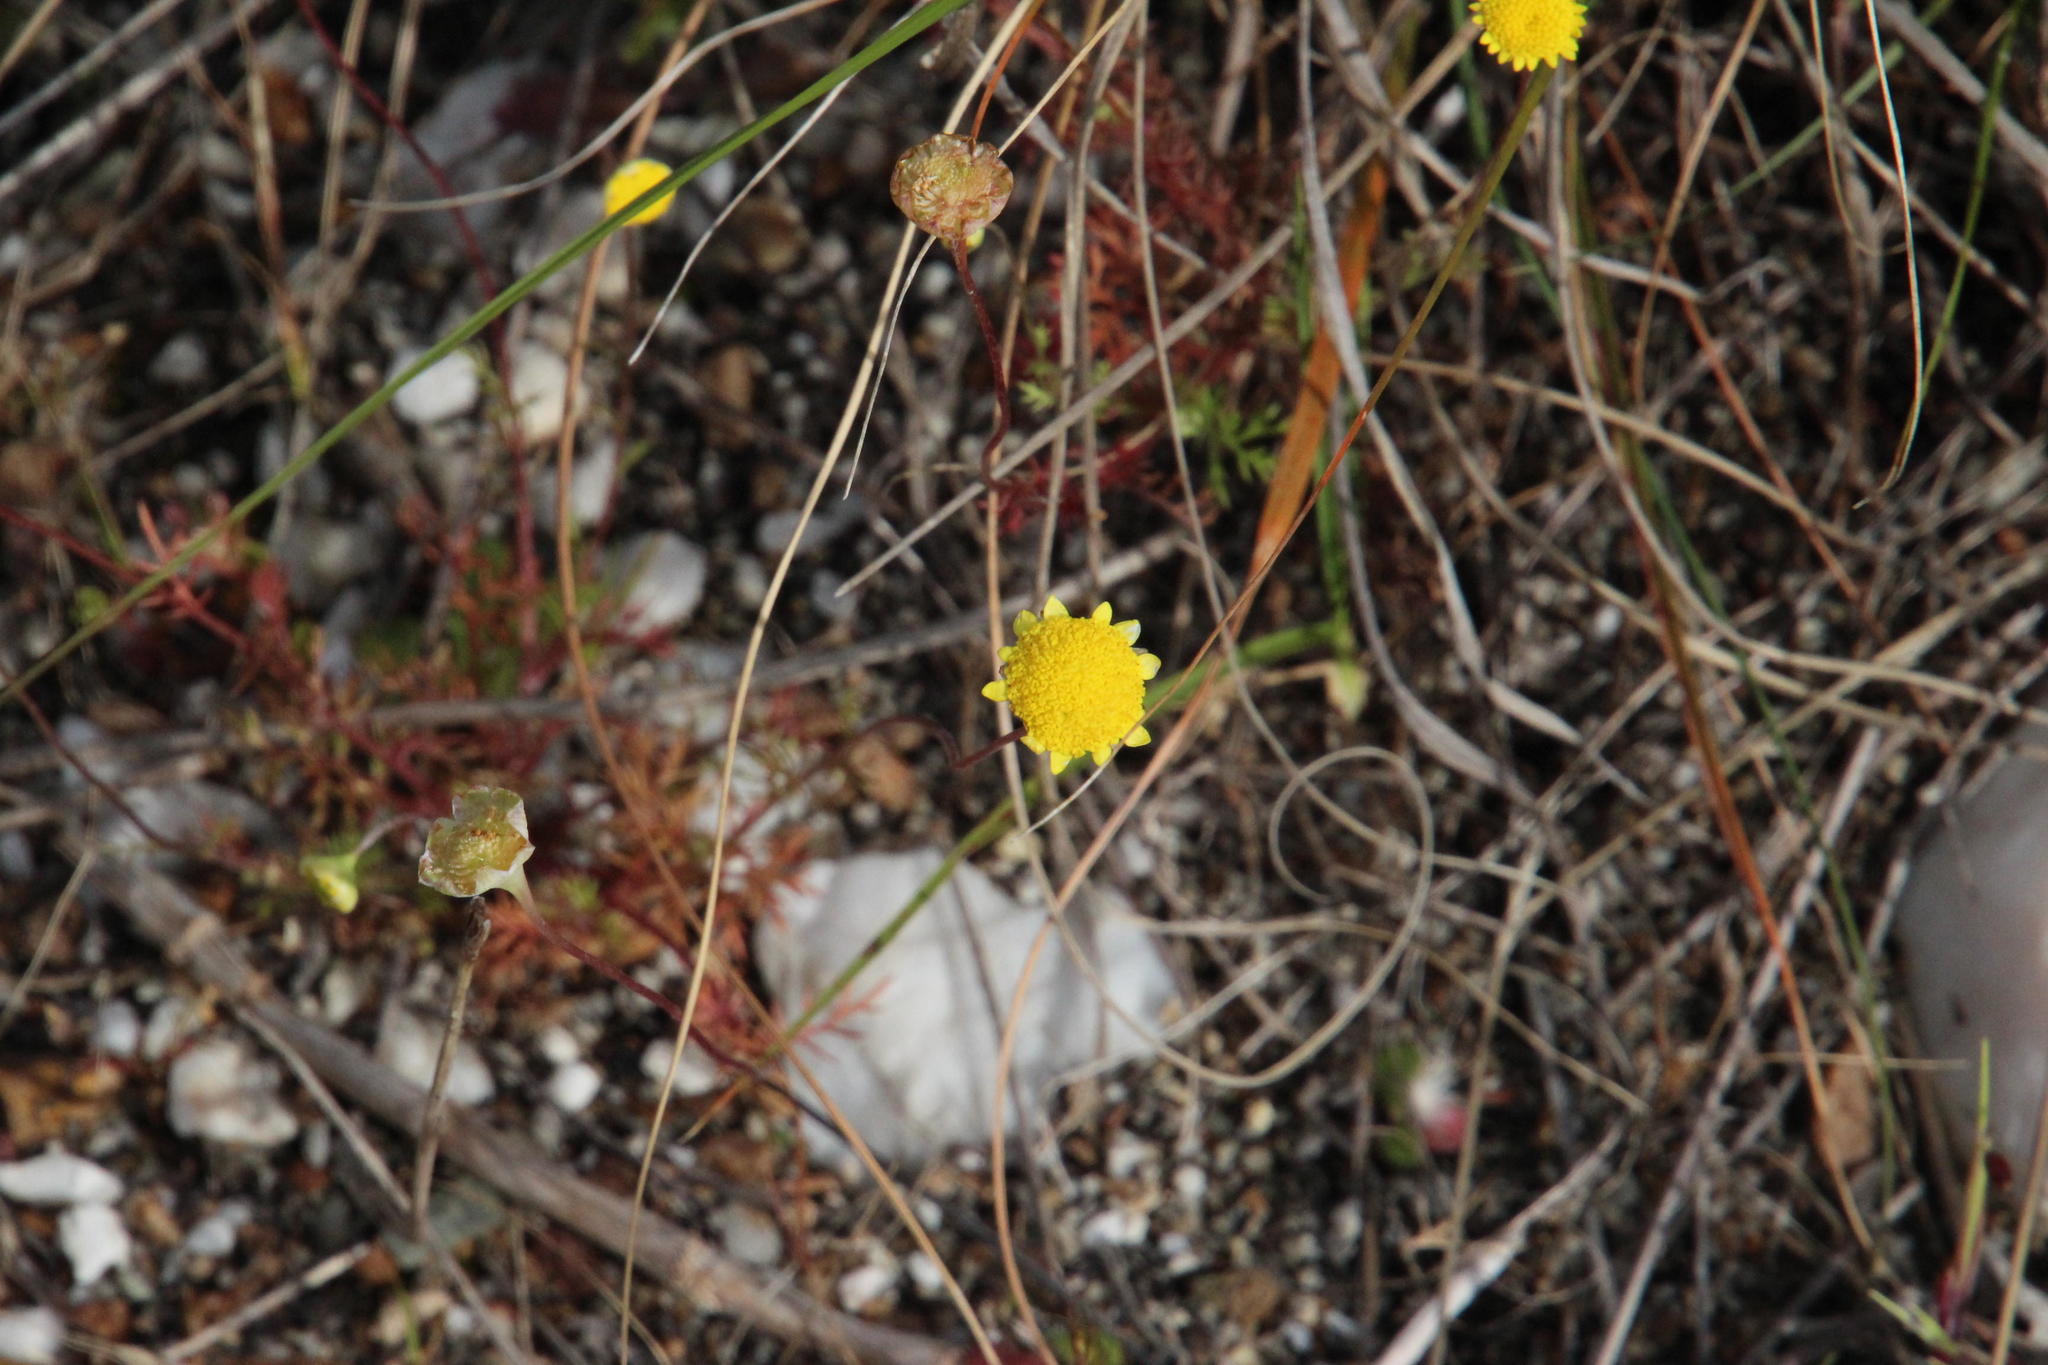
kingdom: Plantae
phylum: Tracheophyta
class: Magnoliopsida
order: Asterales
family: Asteraceae
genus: Cotula
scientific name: Cotula pruinosa
